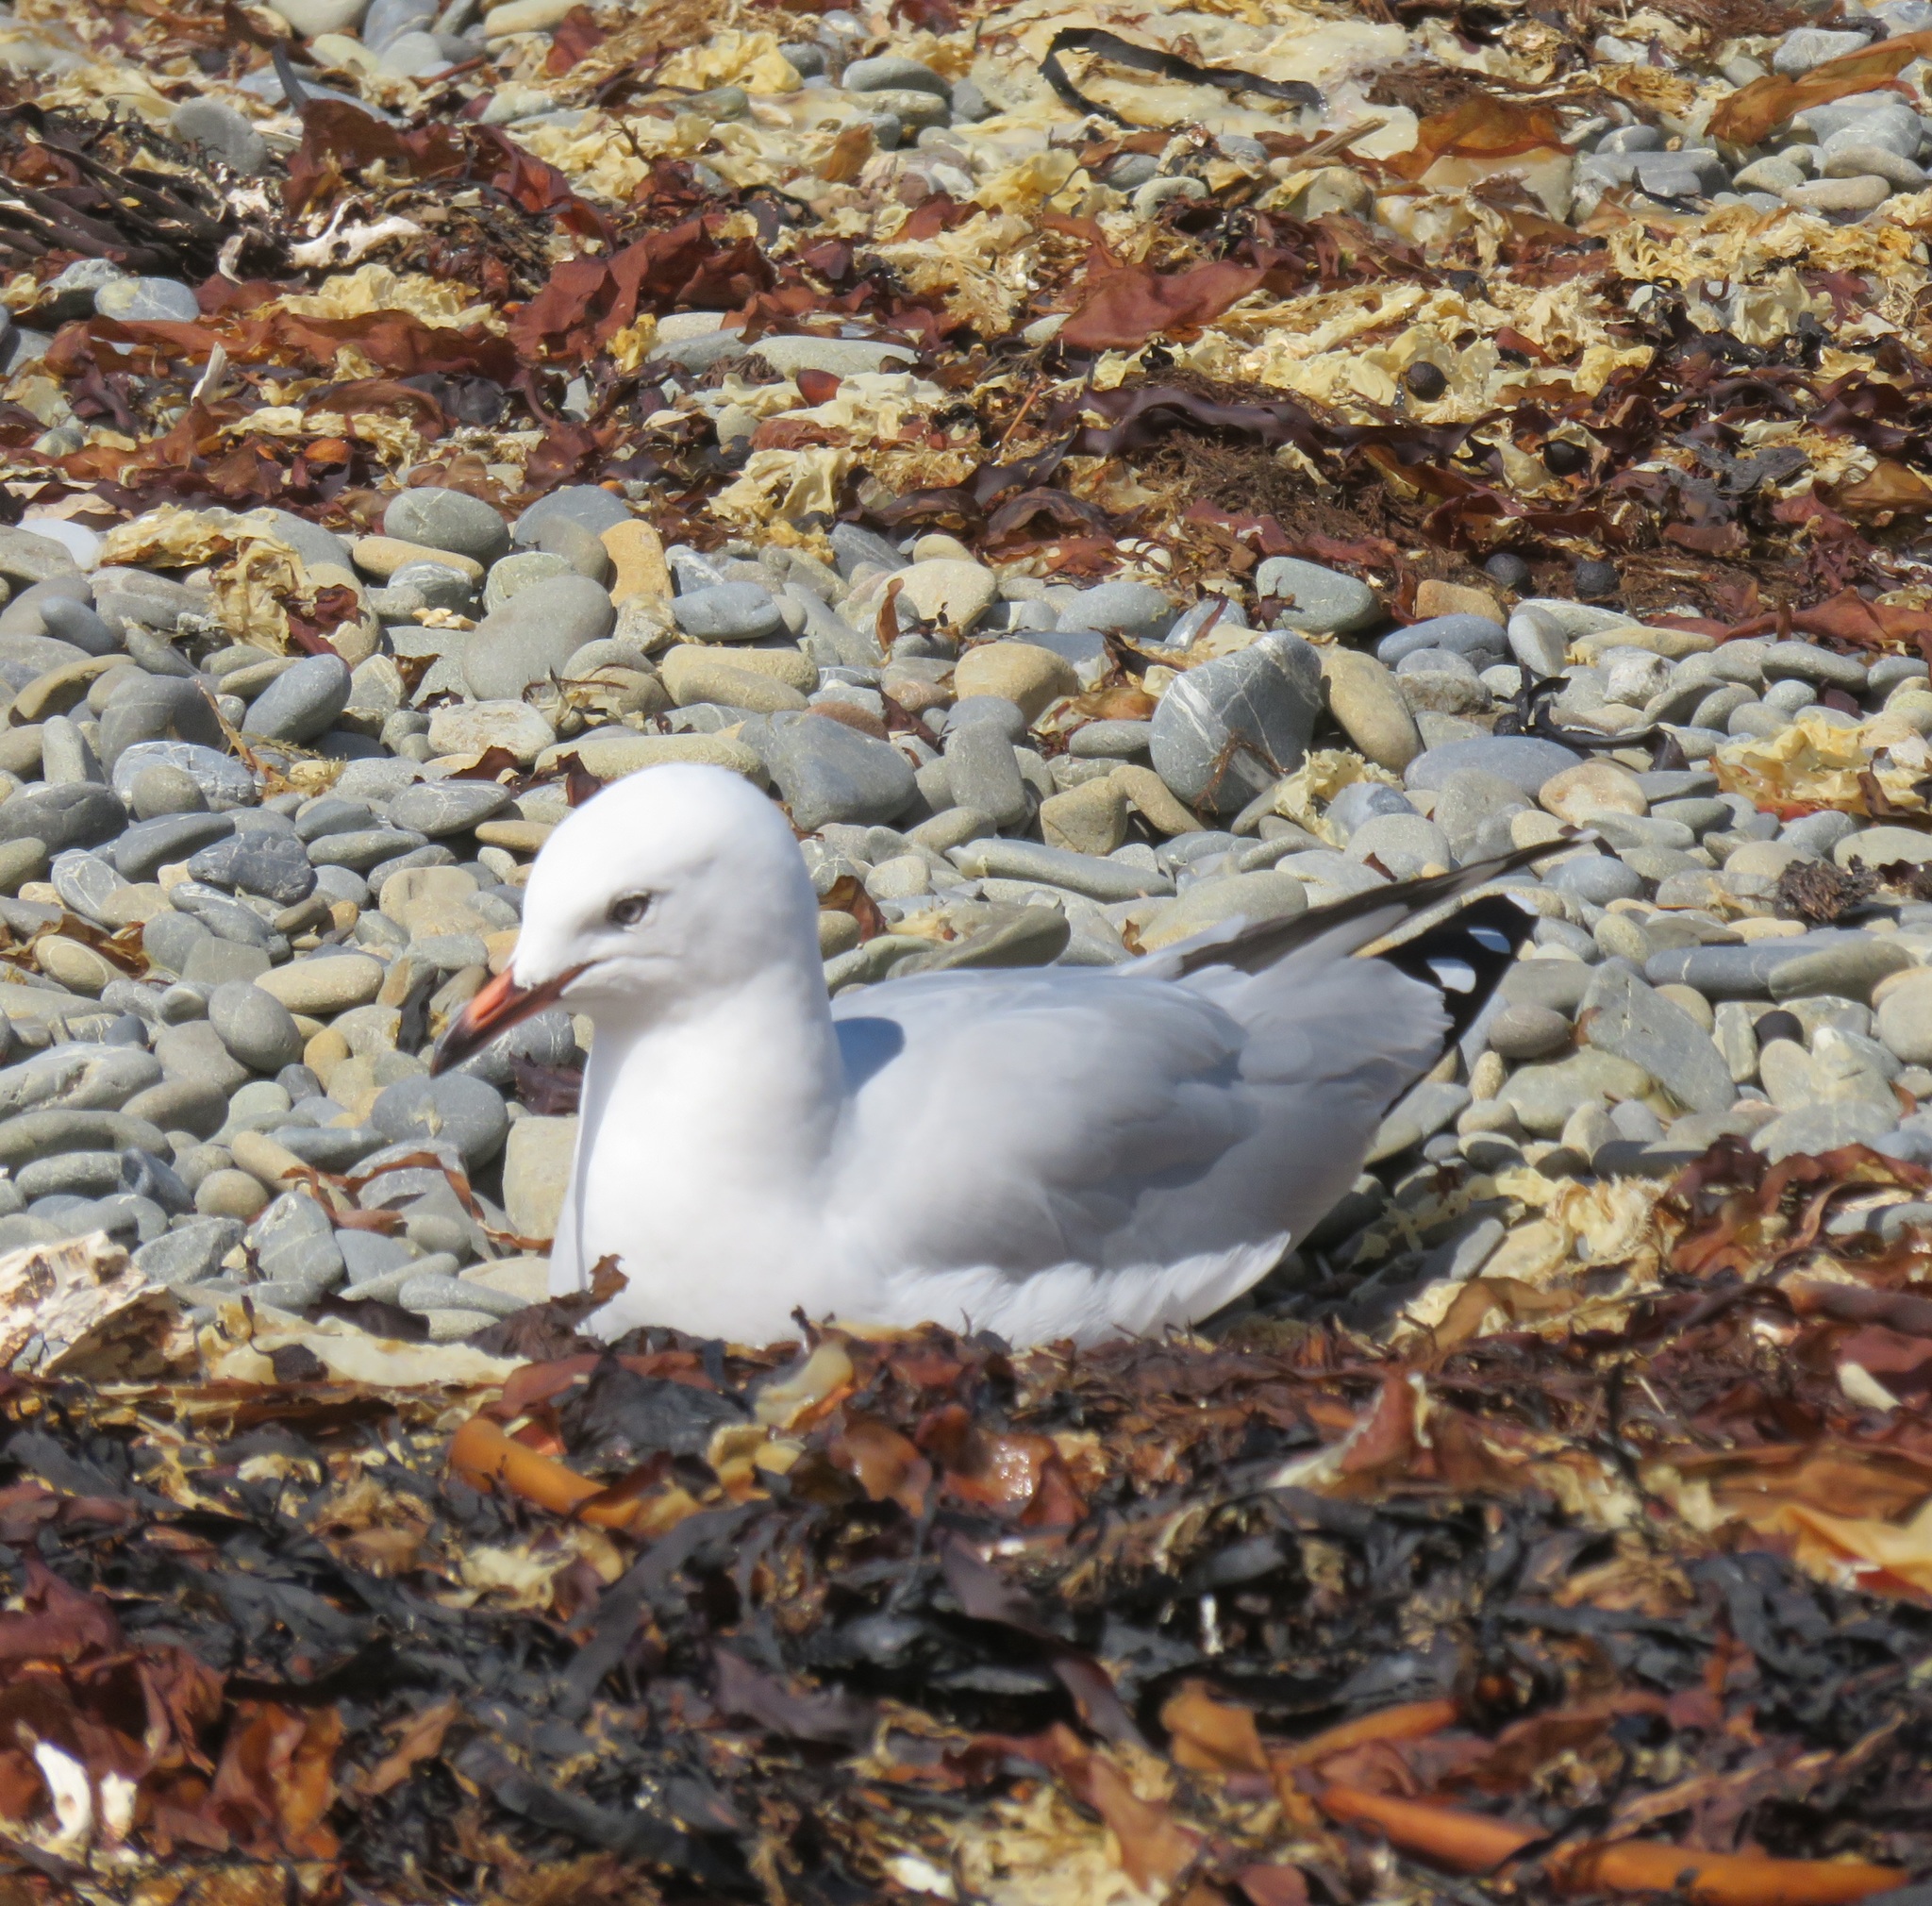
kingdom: Animalia
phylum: Chordata
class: Aves
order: Charadriiformes
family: Laridae
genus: Chroicocephalus
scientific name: Chroicocephalus novaehollandiae
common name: Silver gull
